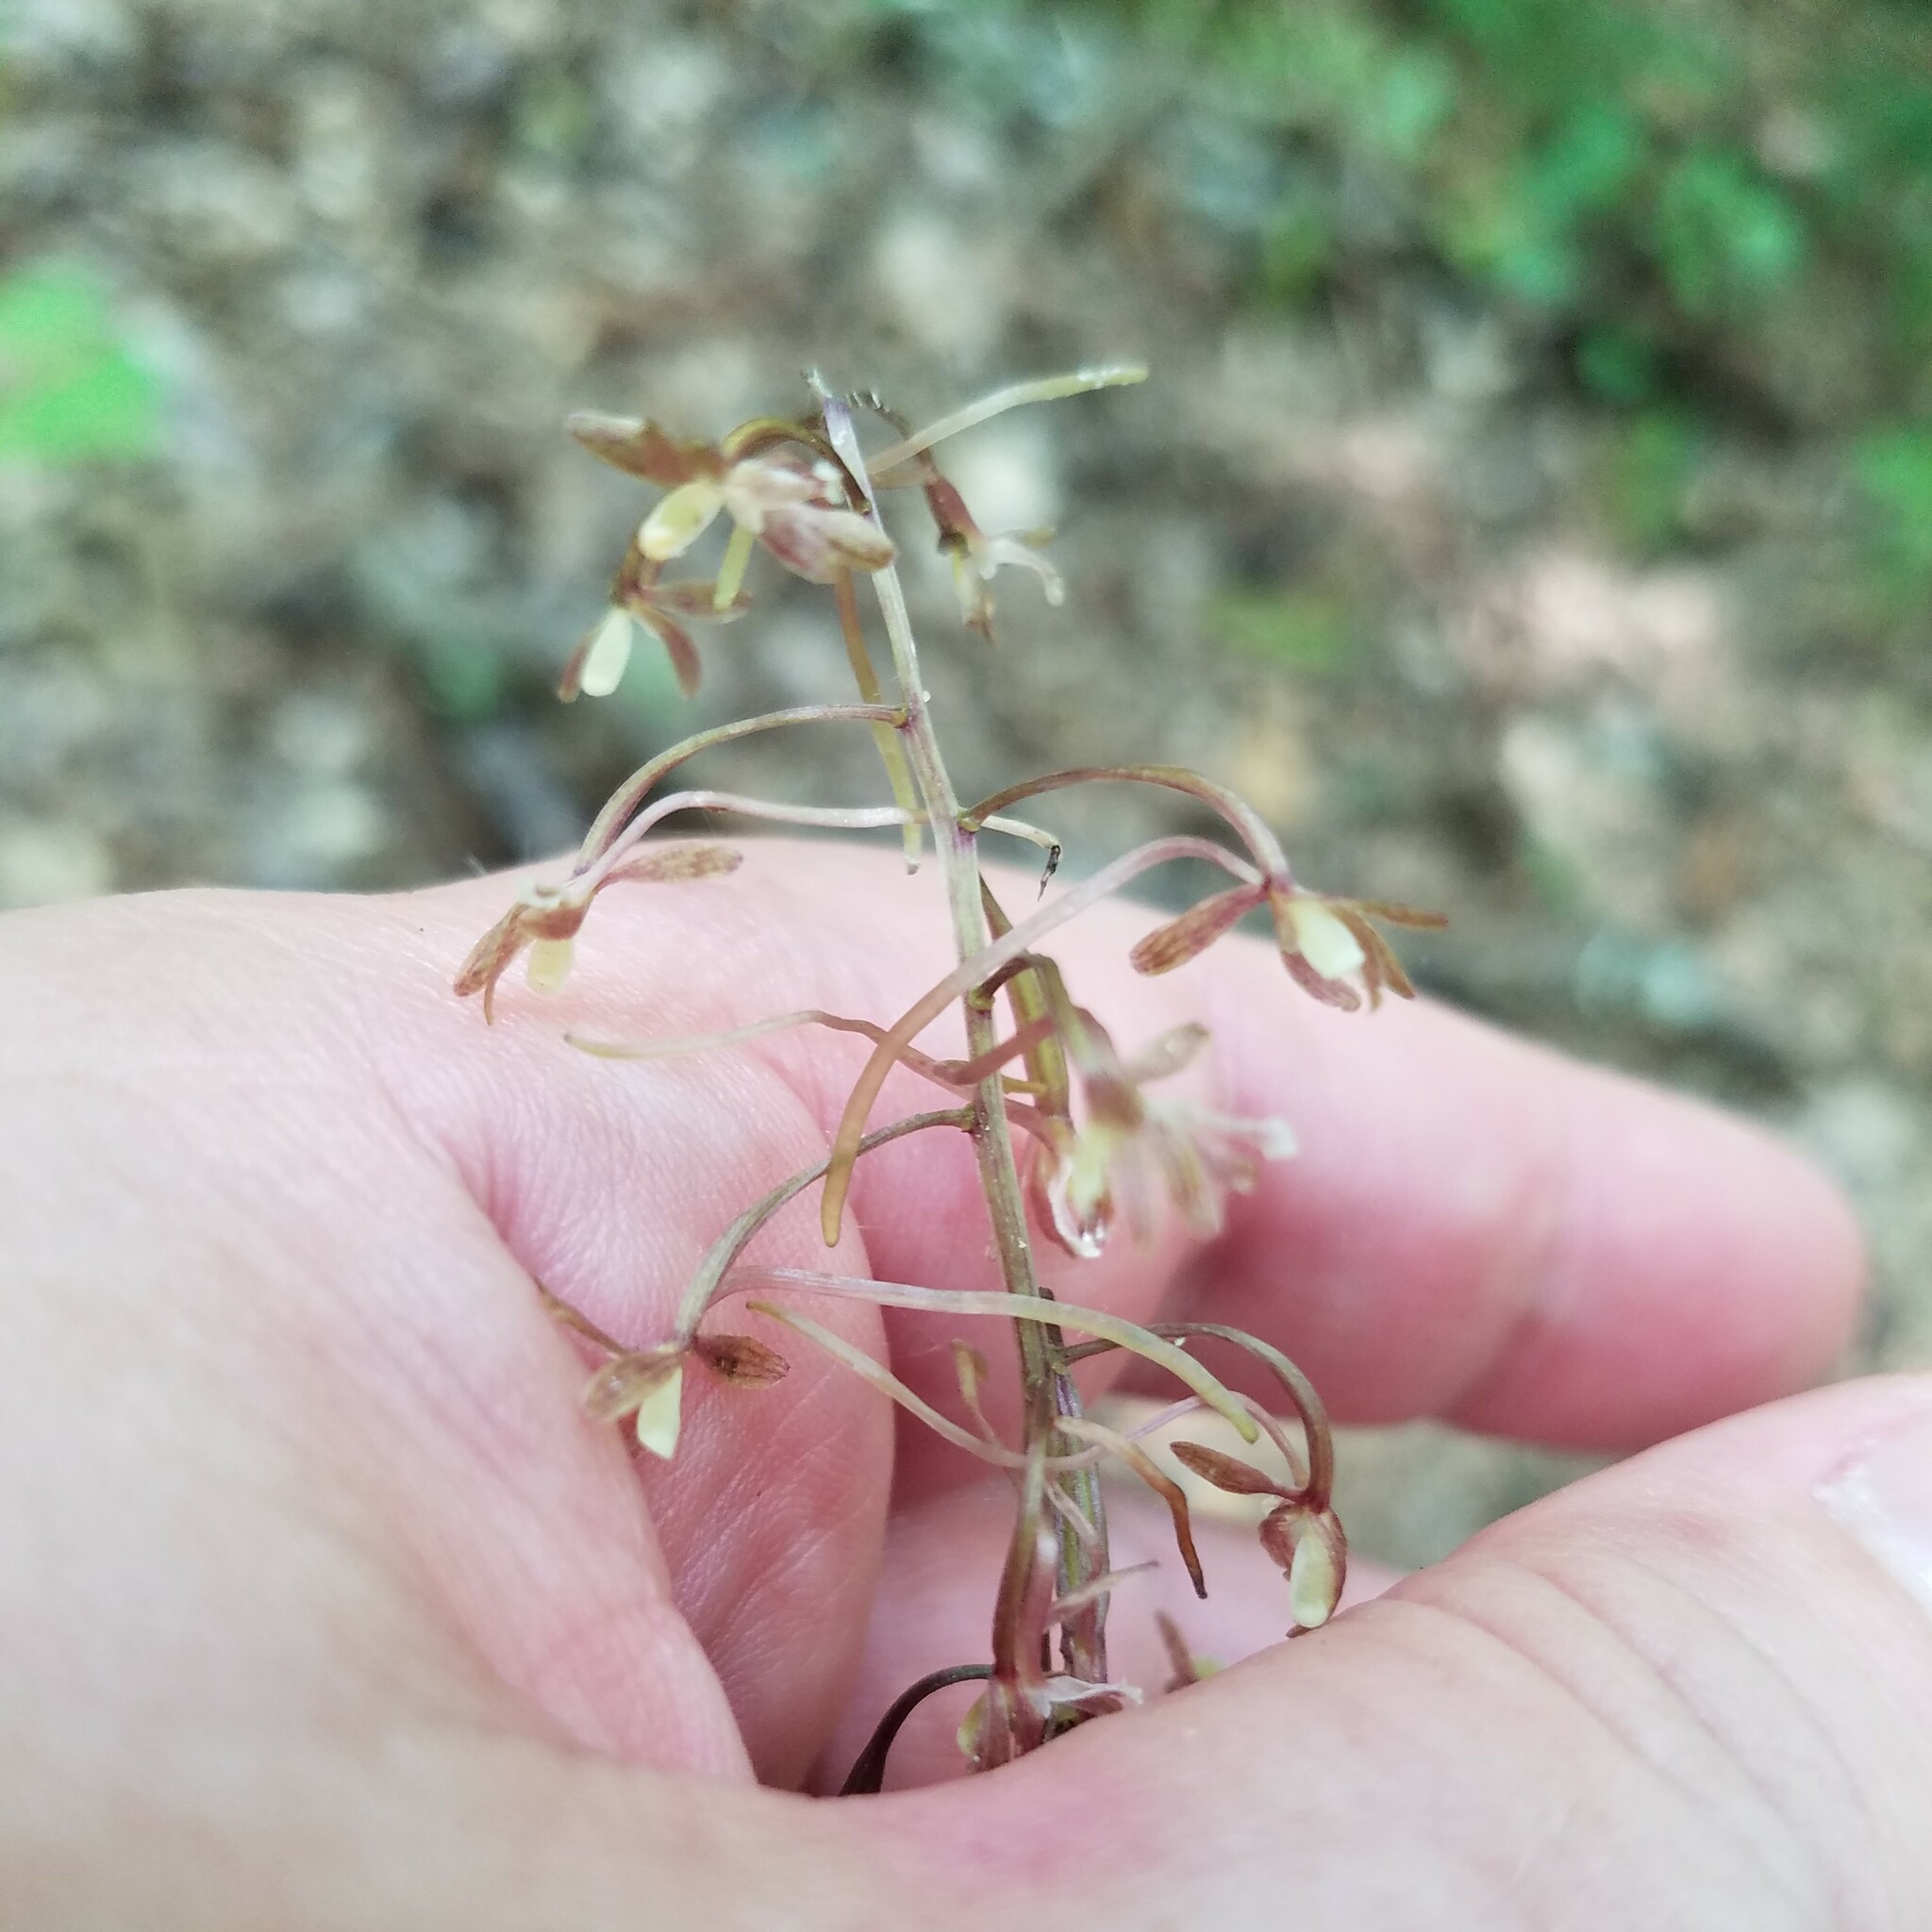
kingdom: Plantae
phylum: Tracheophyta
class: Liliopsida
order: Asparagales
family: Orchidaceae
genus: Tipularia
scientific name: Tipularia discolor
